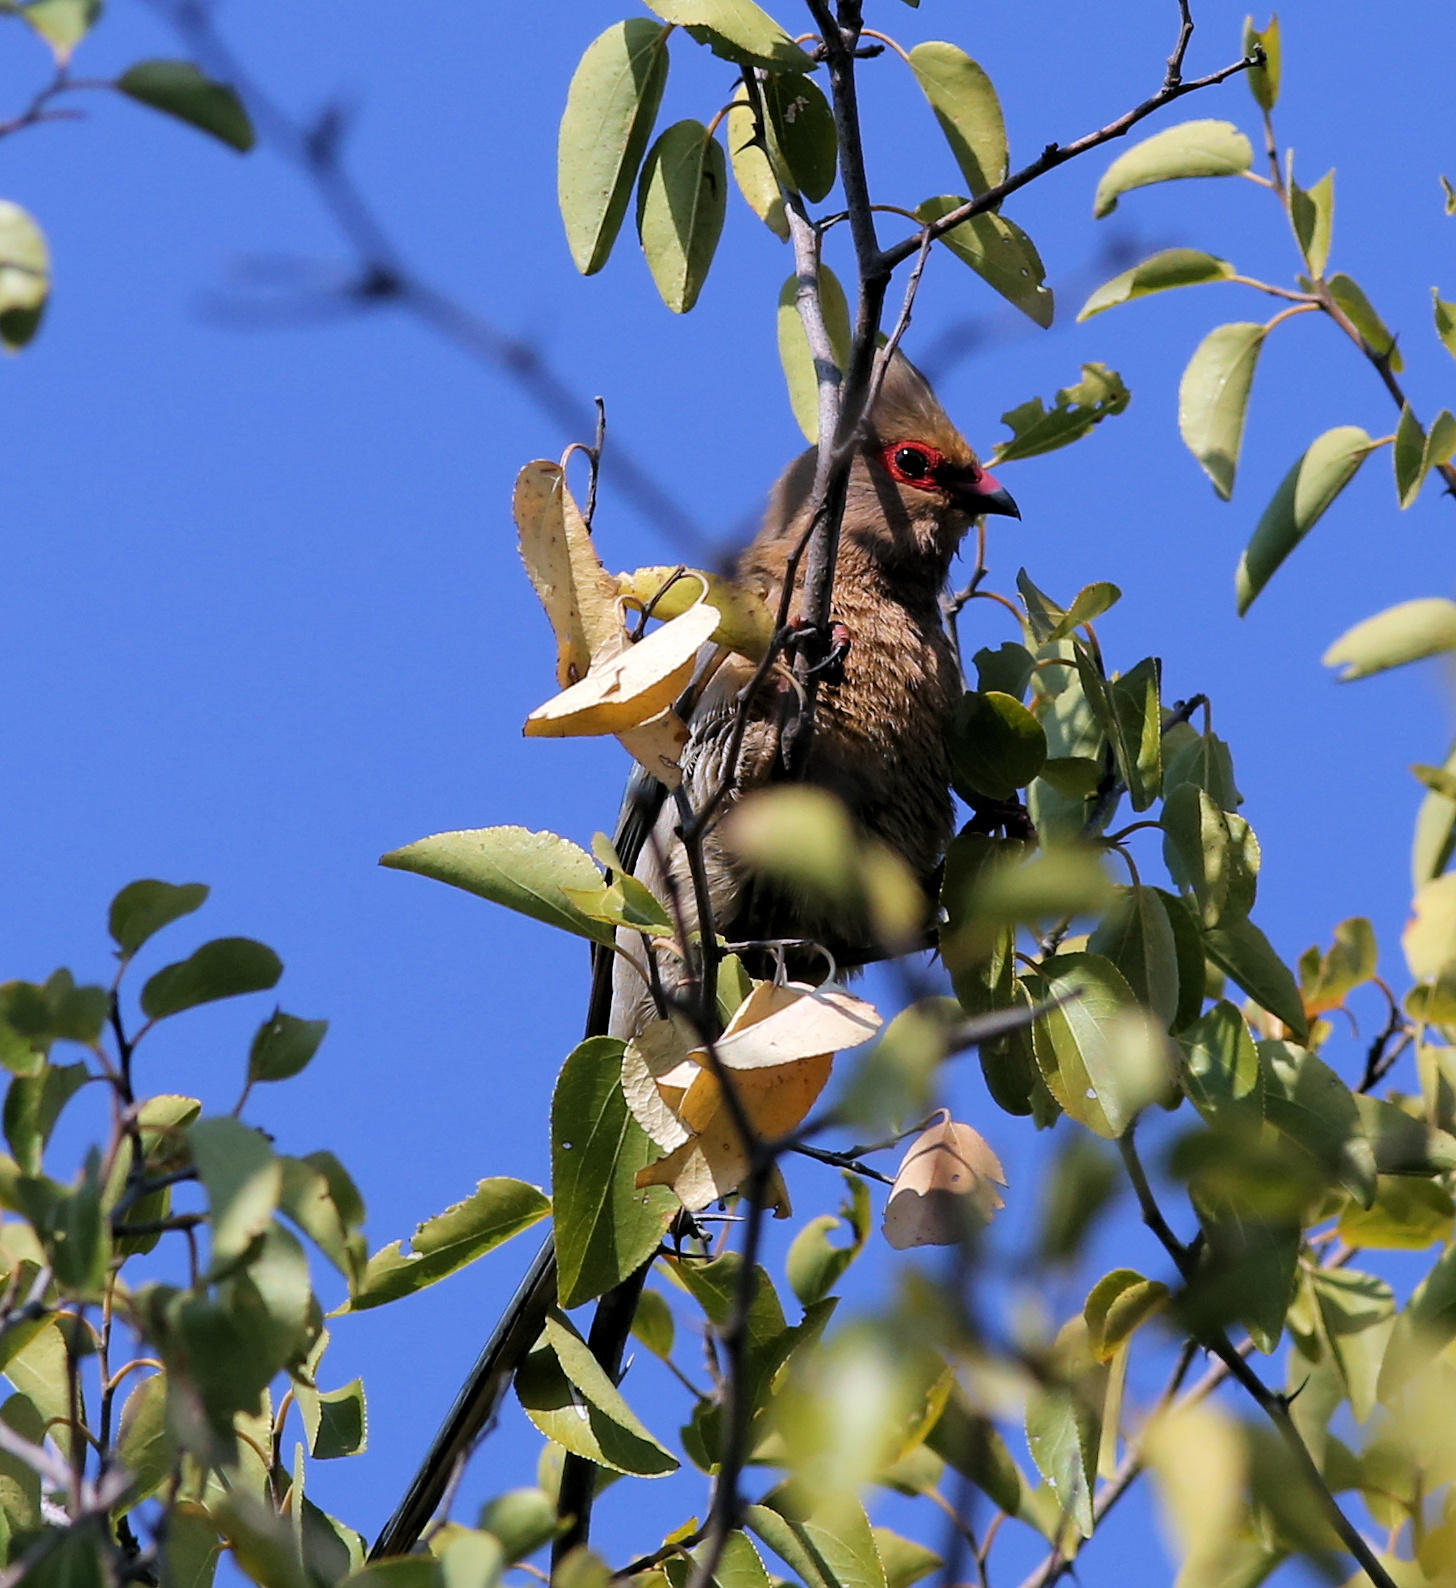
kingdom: Animalia
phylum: Chordata
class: Aves
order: Coliiformes
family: Coliidae
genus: Urocolius
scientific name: Urocolius indicus
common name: Red-faced mousebird
